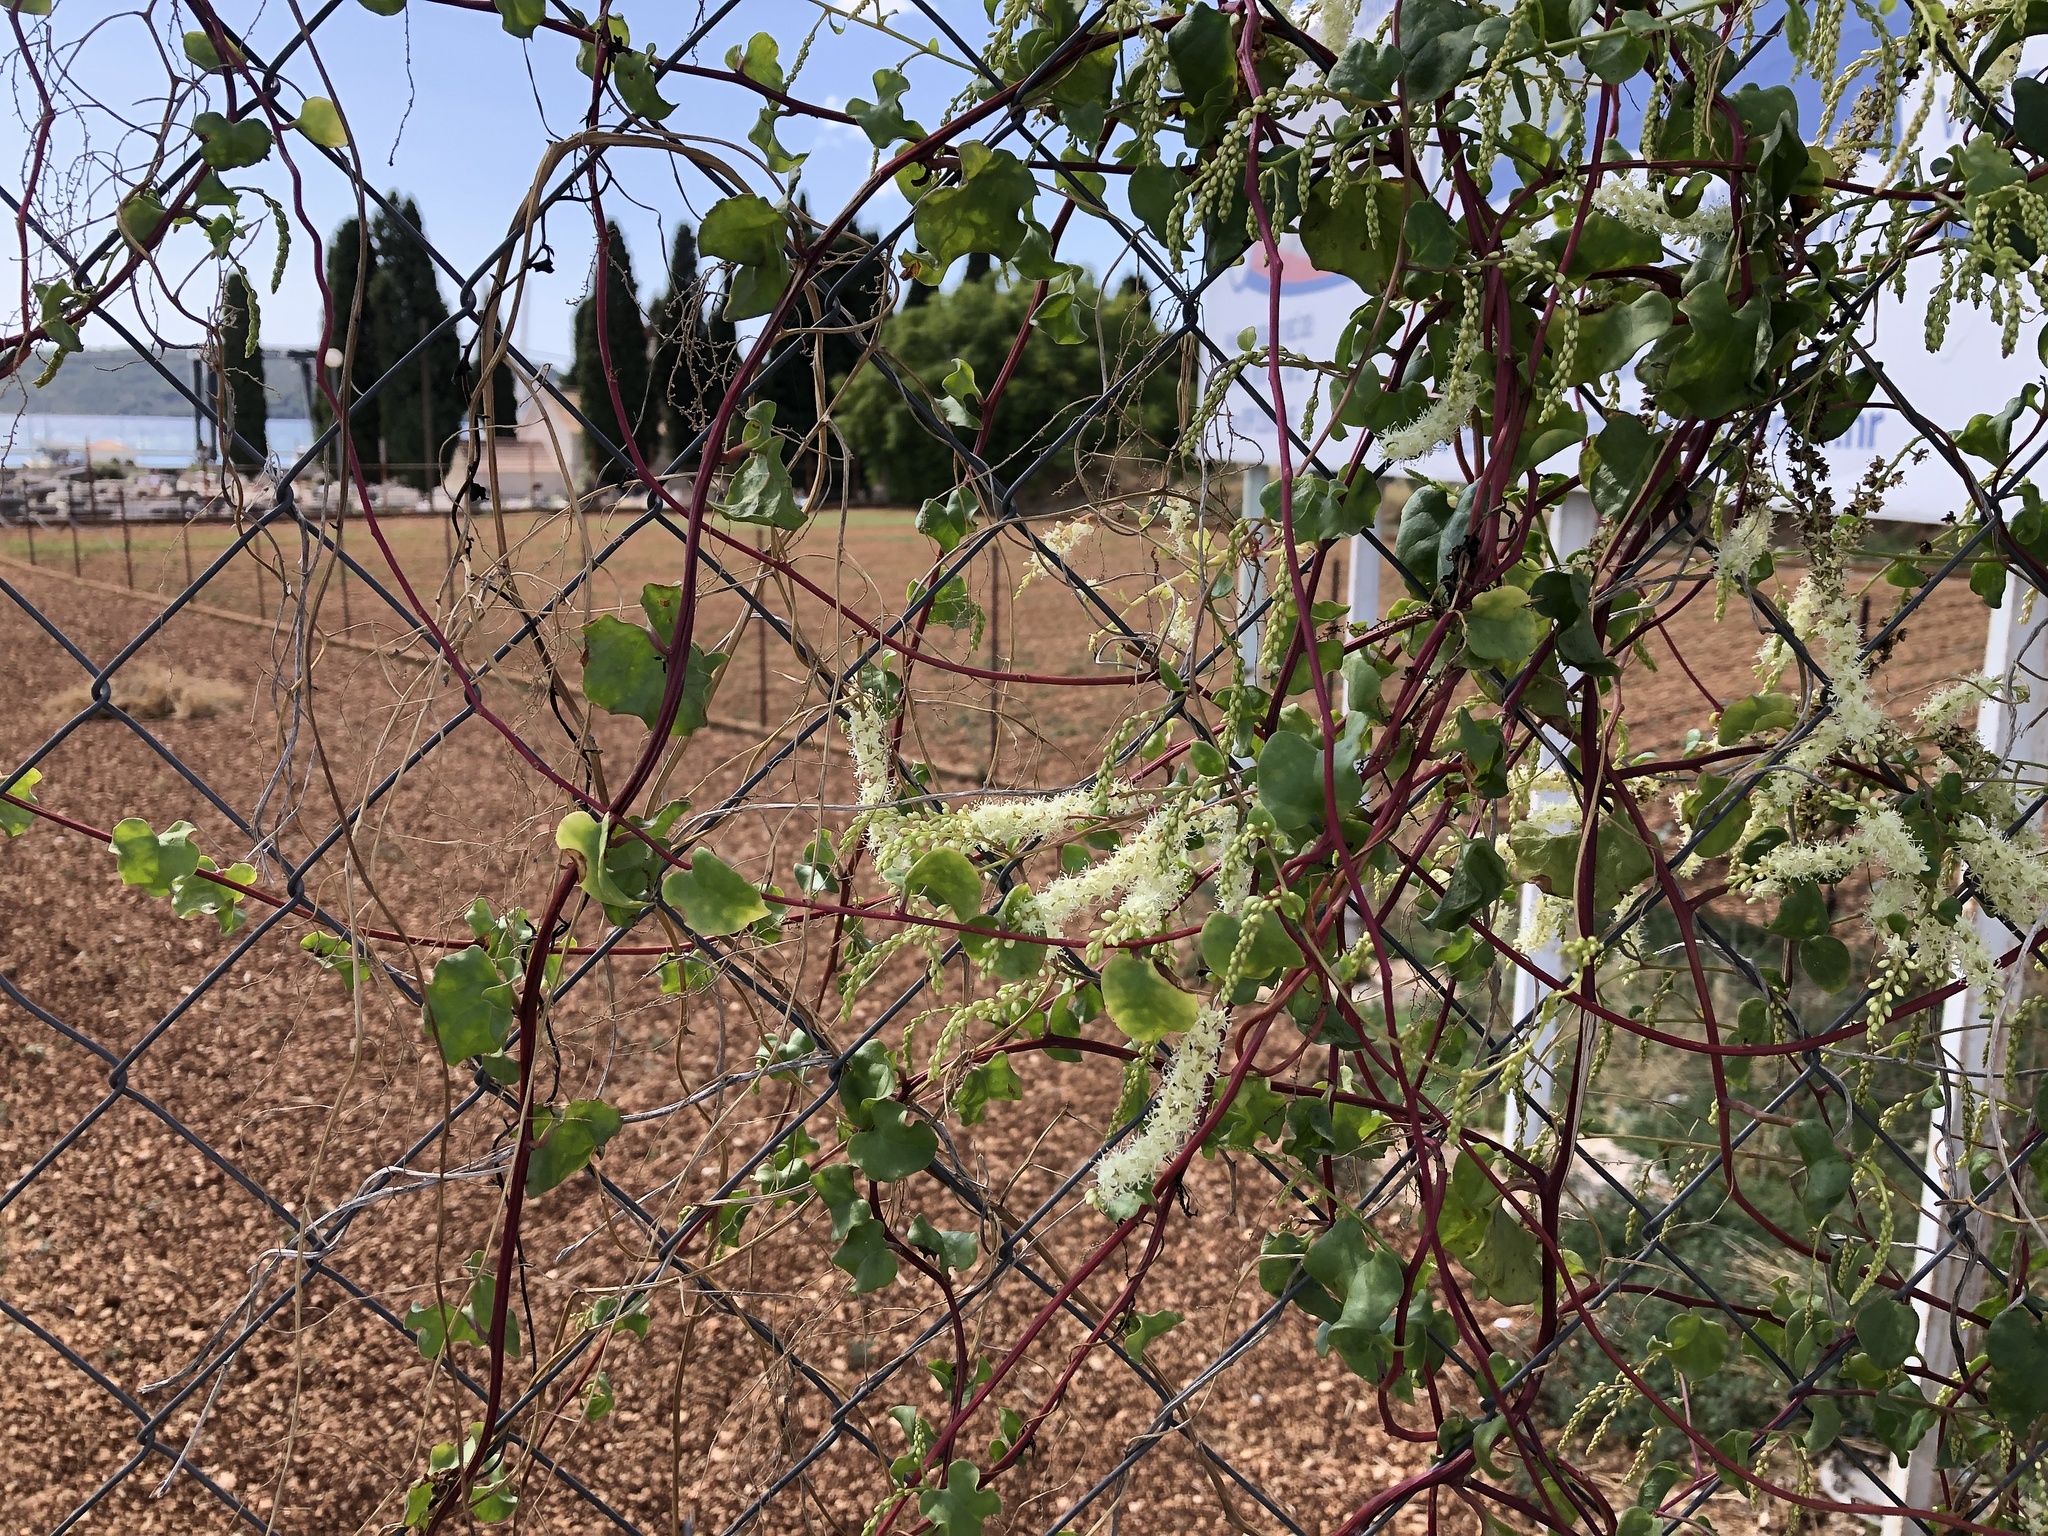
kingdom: Plantae
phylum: Tracheophyta
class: Magnoliopsida
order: Caryophyllales
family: Basellaceae
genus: Anredera
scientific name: Anredera cordifolia
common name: Heartleaf madeiravine
